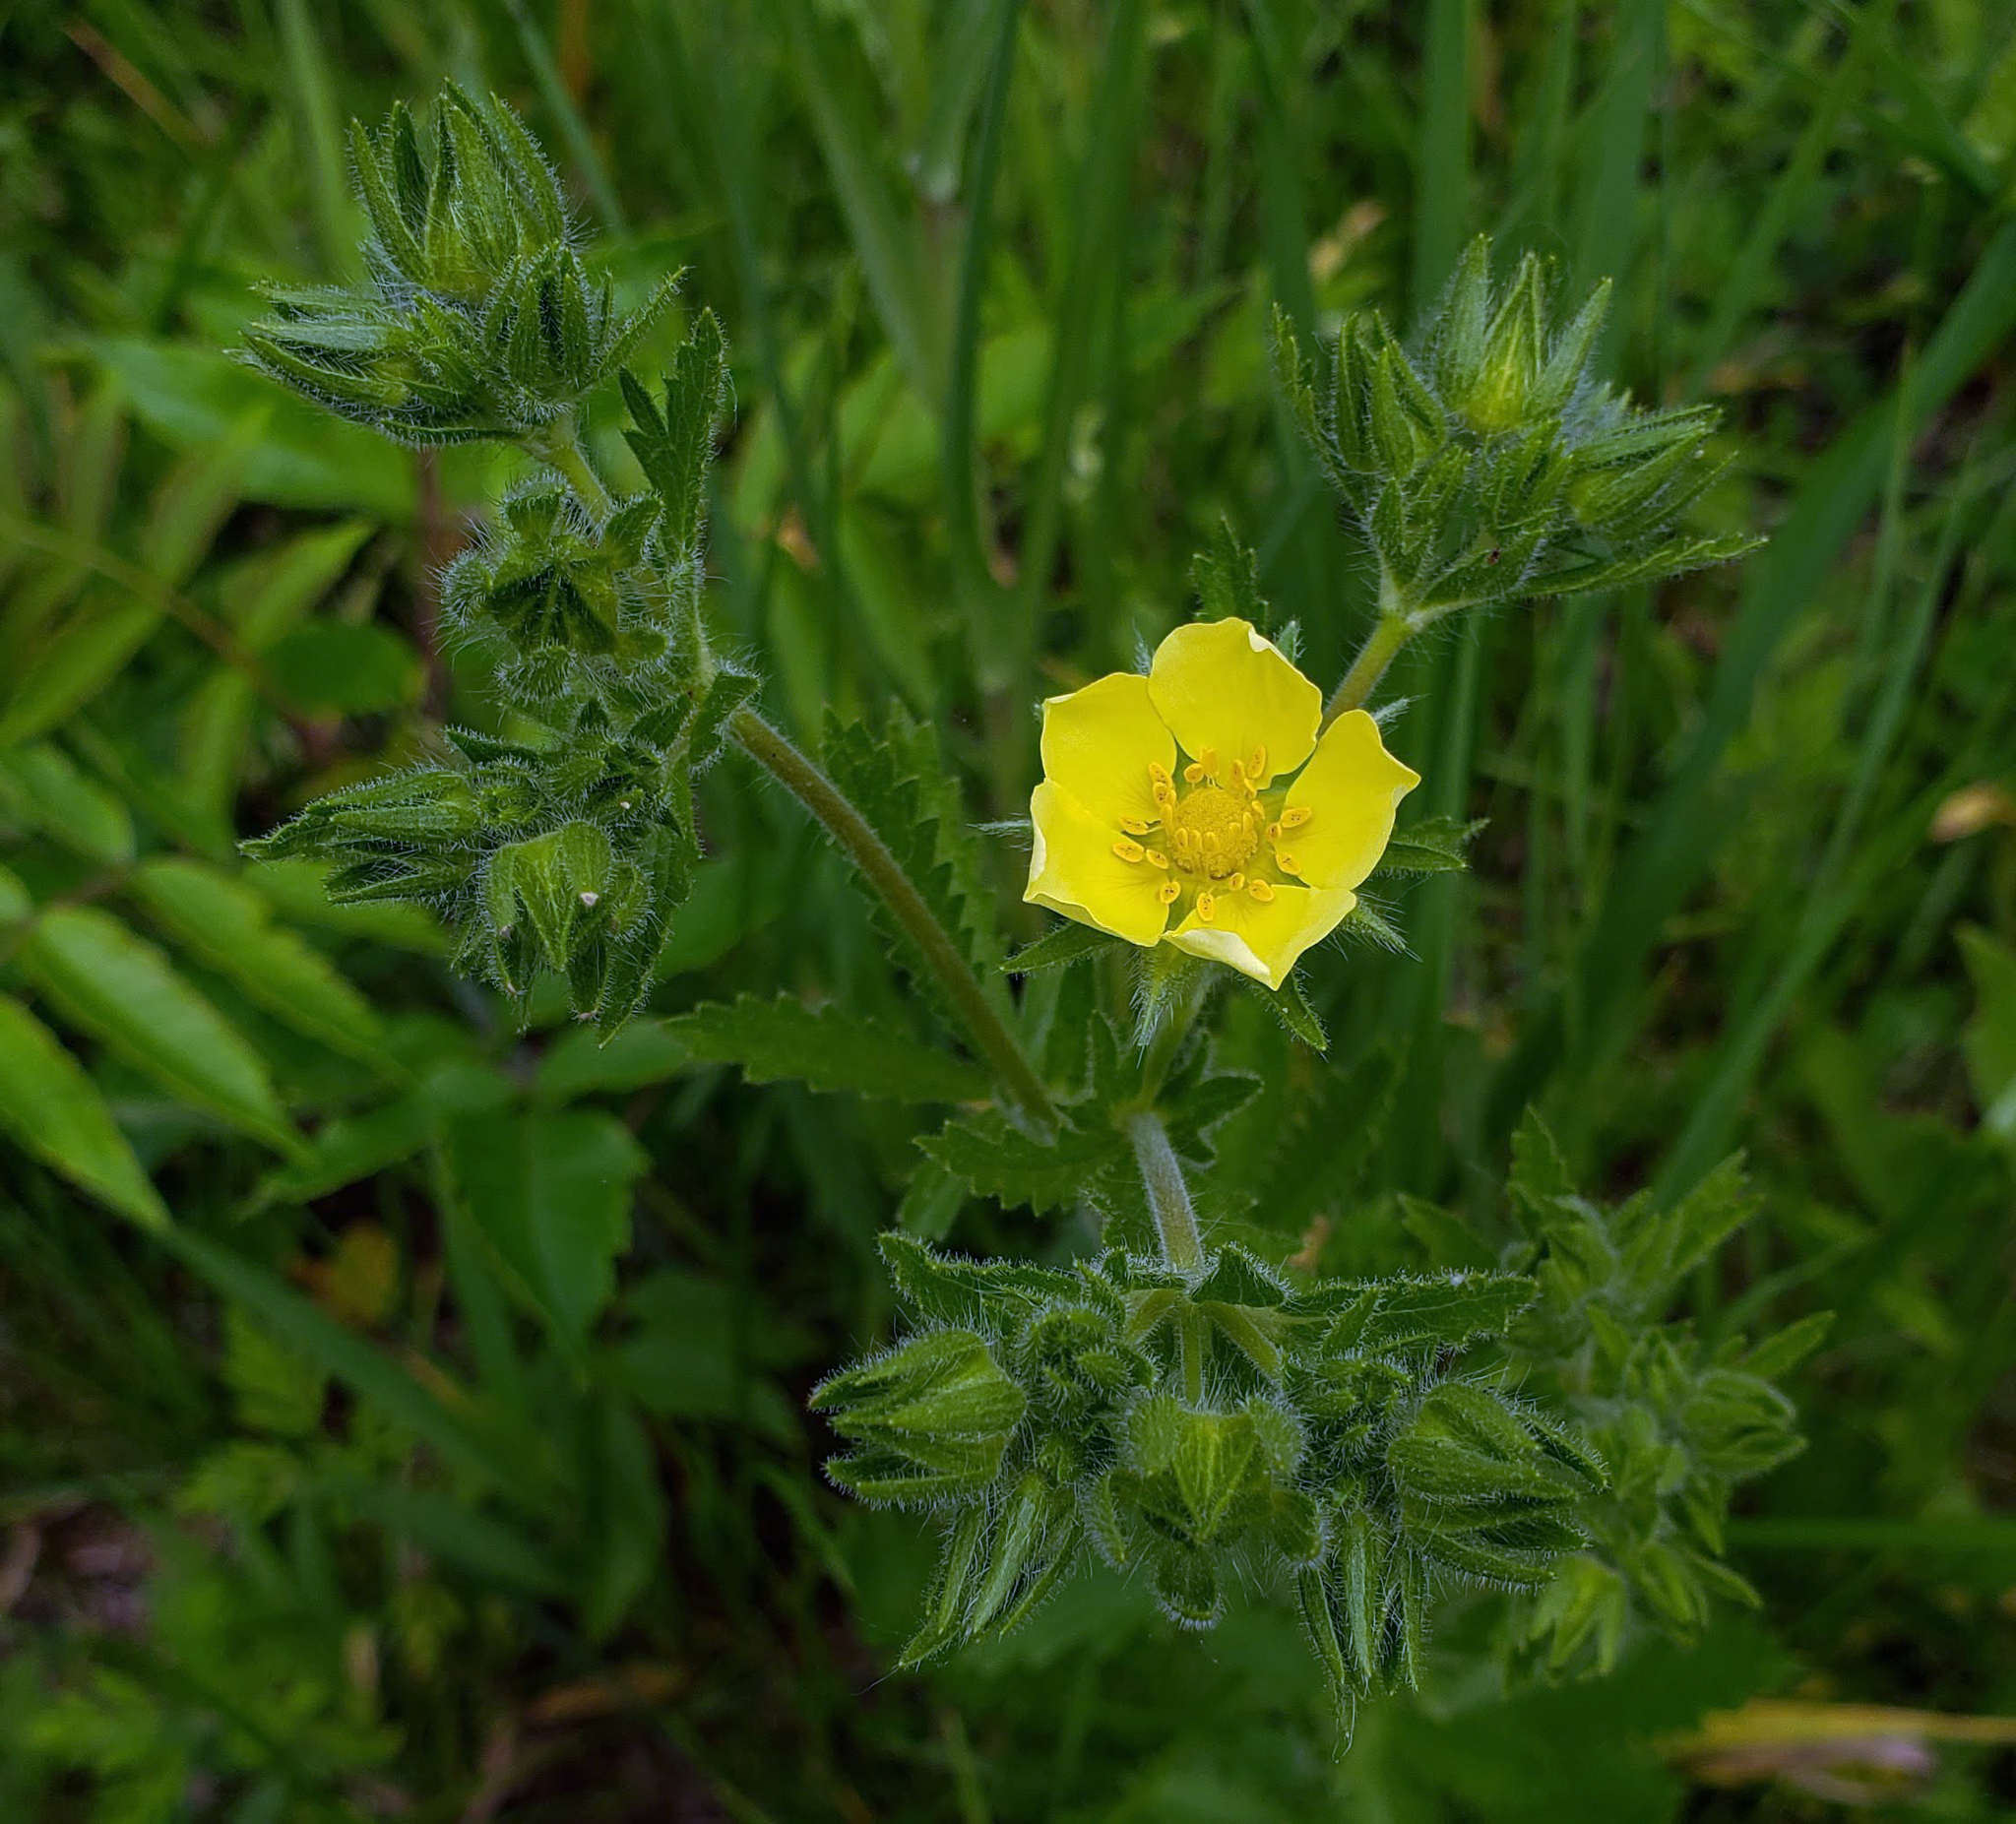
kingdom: Plantae
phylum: Tracheophyta
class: Magnoliopsida
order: Rosales
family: Rosaceae
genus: Potentilla
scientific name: Potentilla recta
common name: Sulphur cinquefoil
